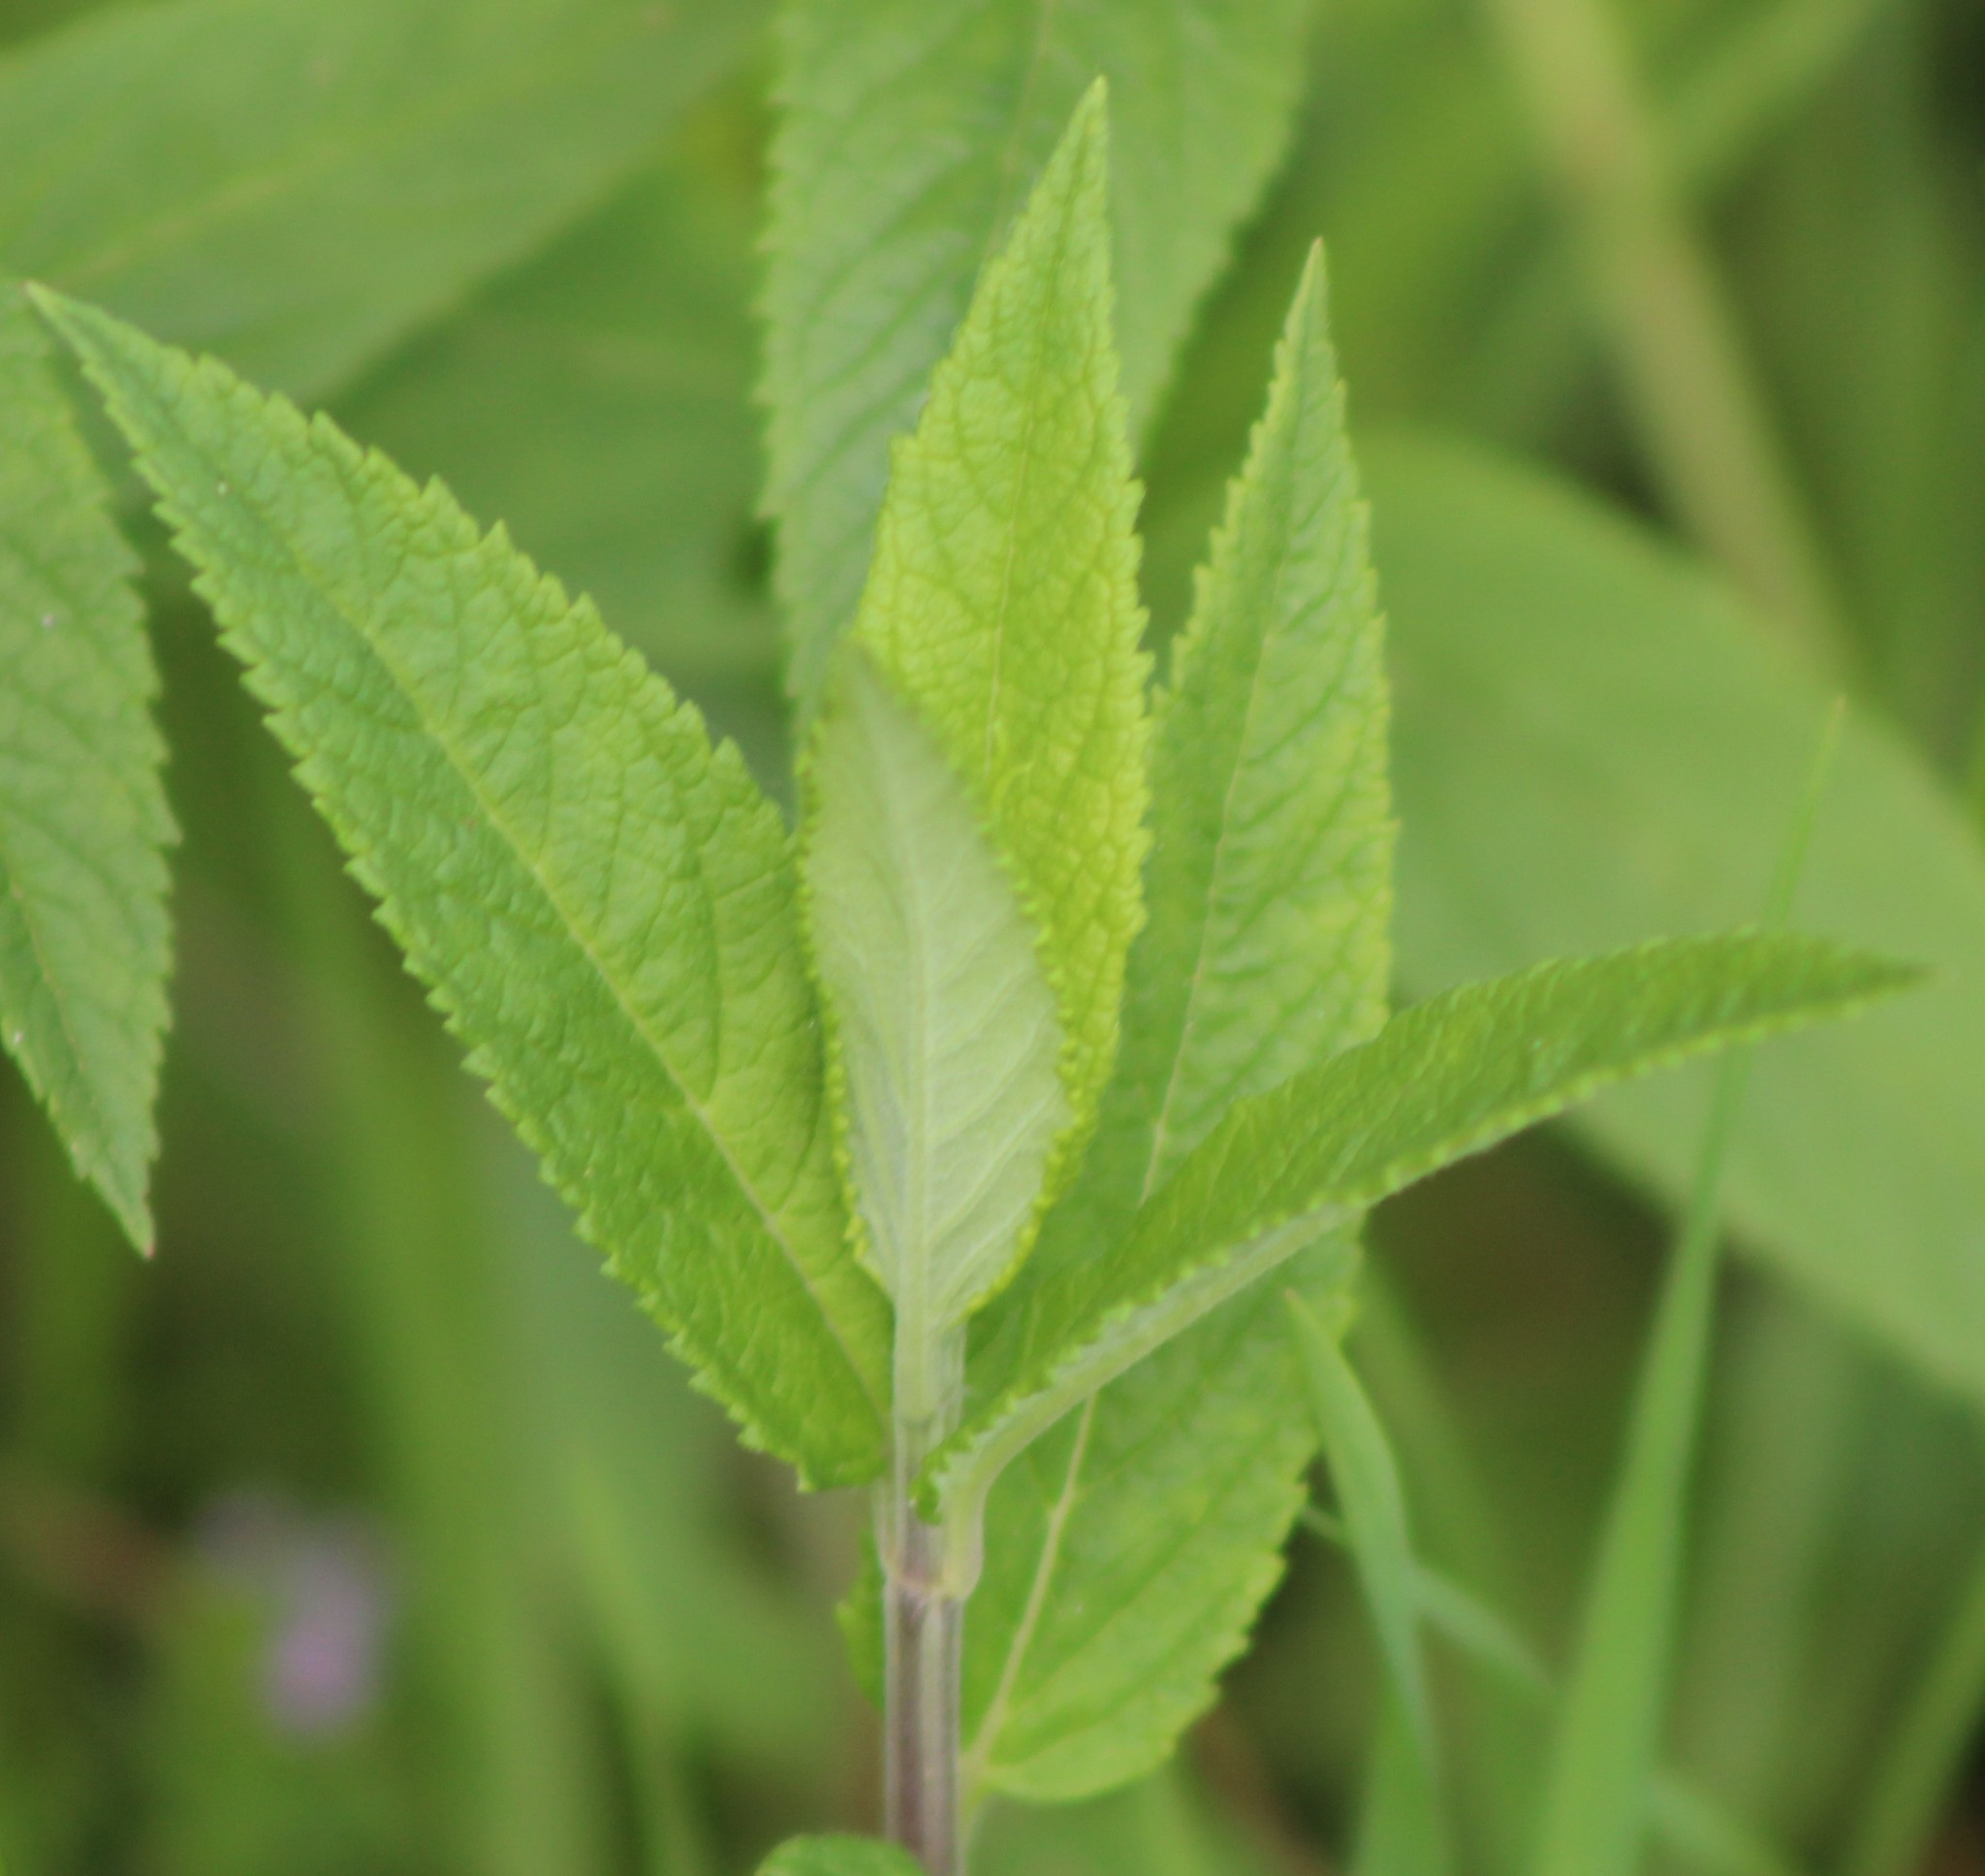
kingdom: Plantae
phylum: Tracheophyta
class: Magnoliopsida
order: Lamiales
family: Lamiaceae
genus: Teucrium
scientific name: Teucrium canadense
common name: American germander
